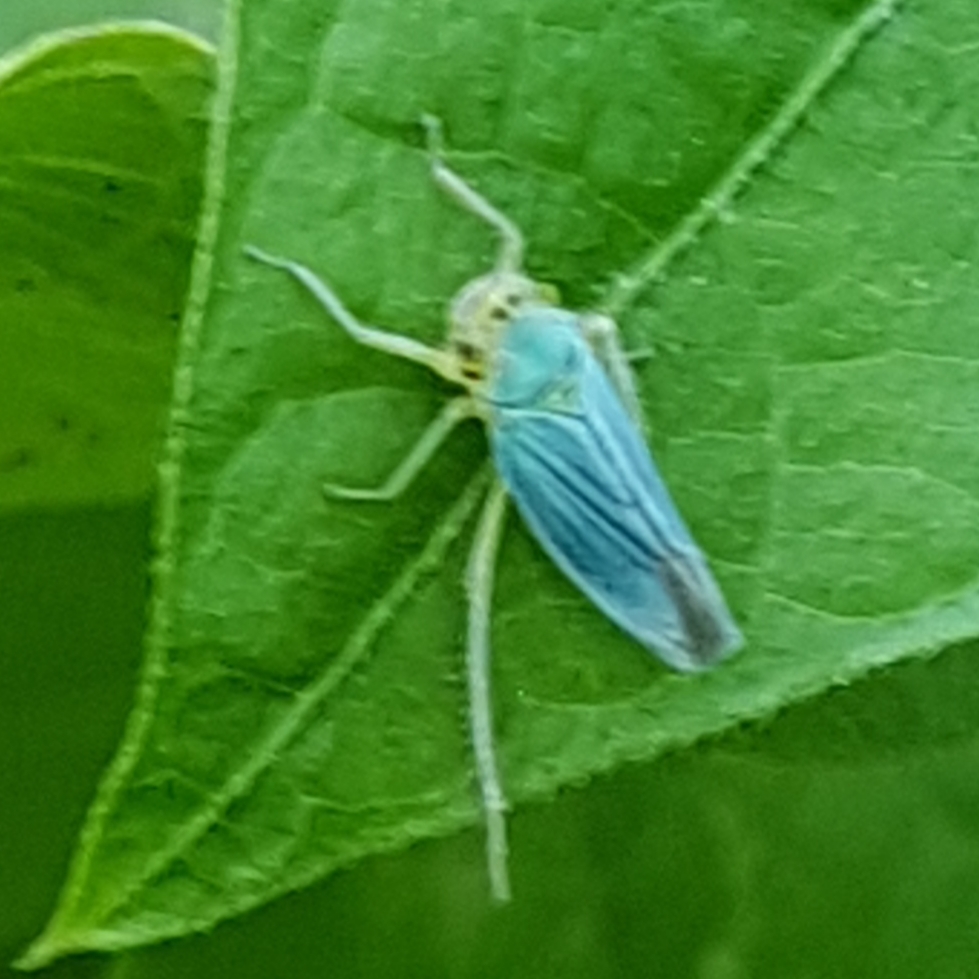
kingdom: Animalia
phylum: Arthropoda
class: Insecta
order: Hemiptera
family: Cicadellidae
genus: Cicadella
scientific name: Cicadella viridis
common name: Leafhopper
